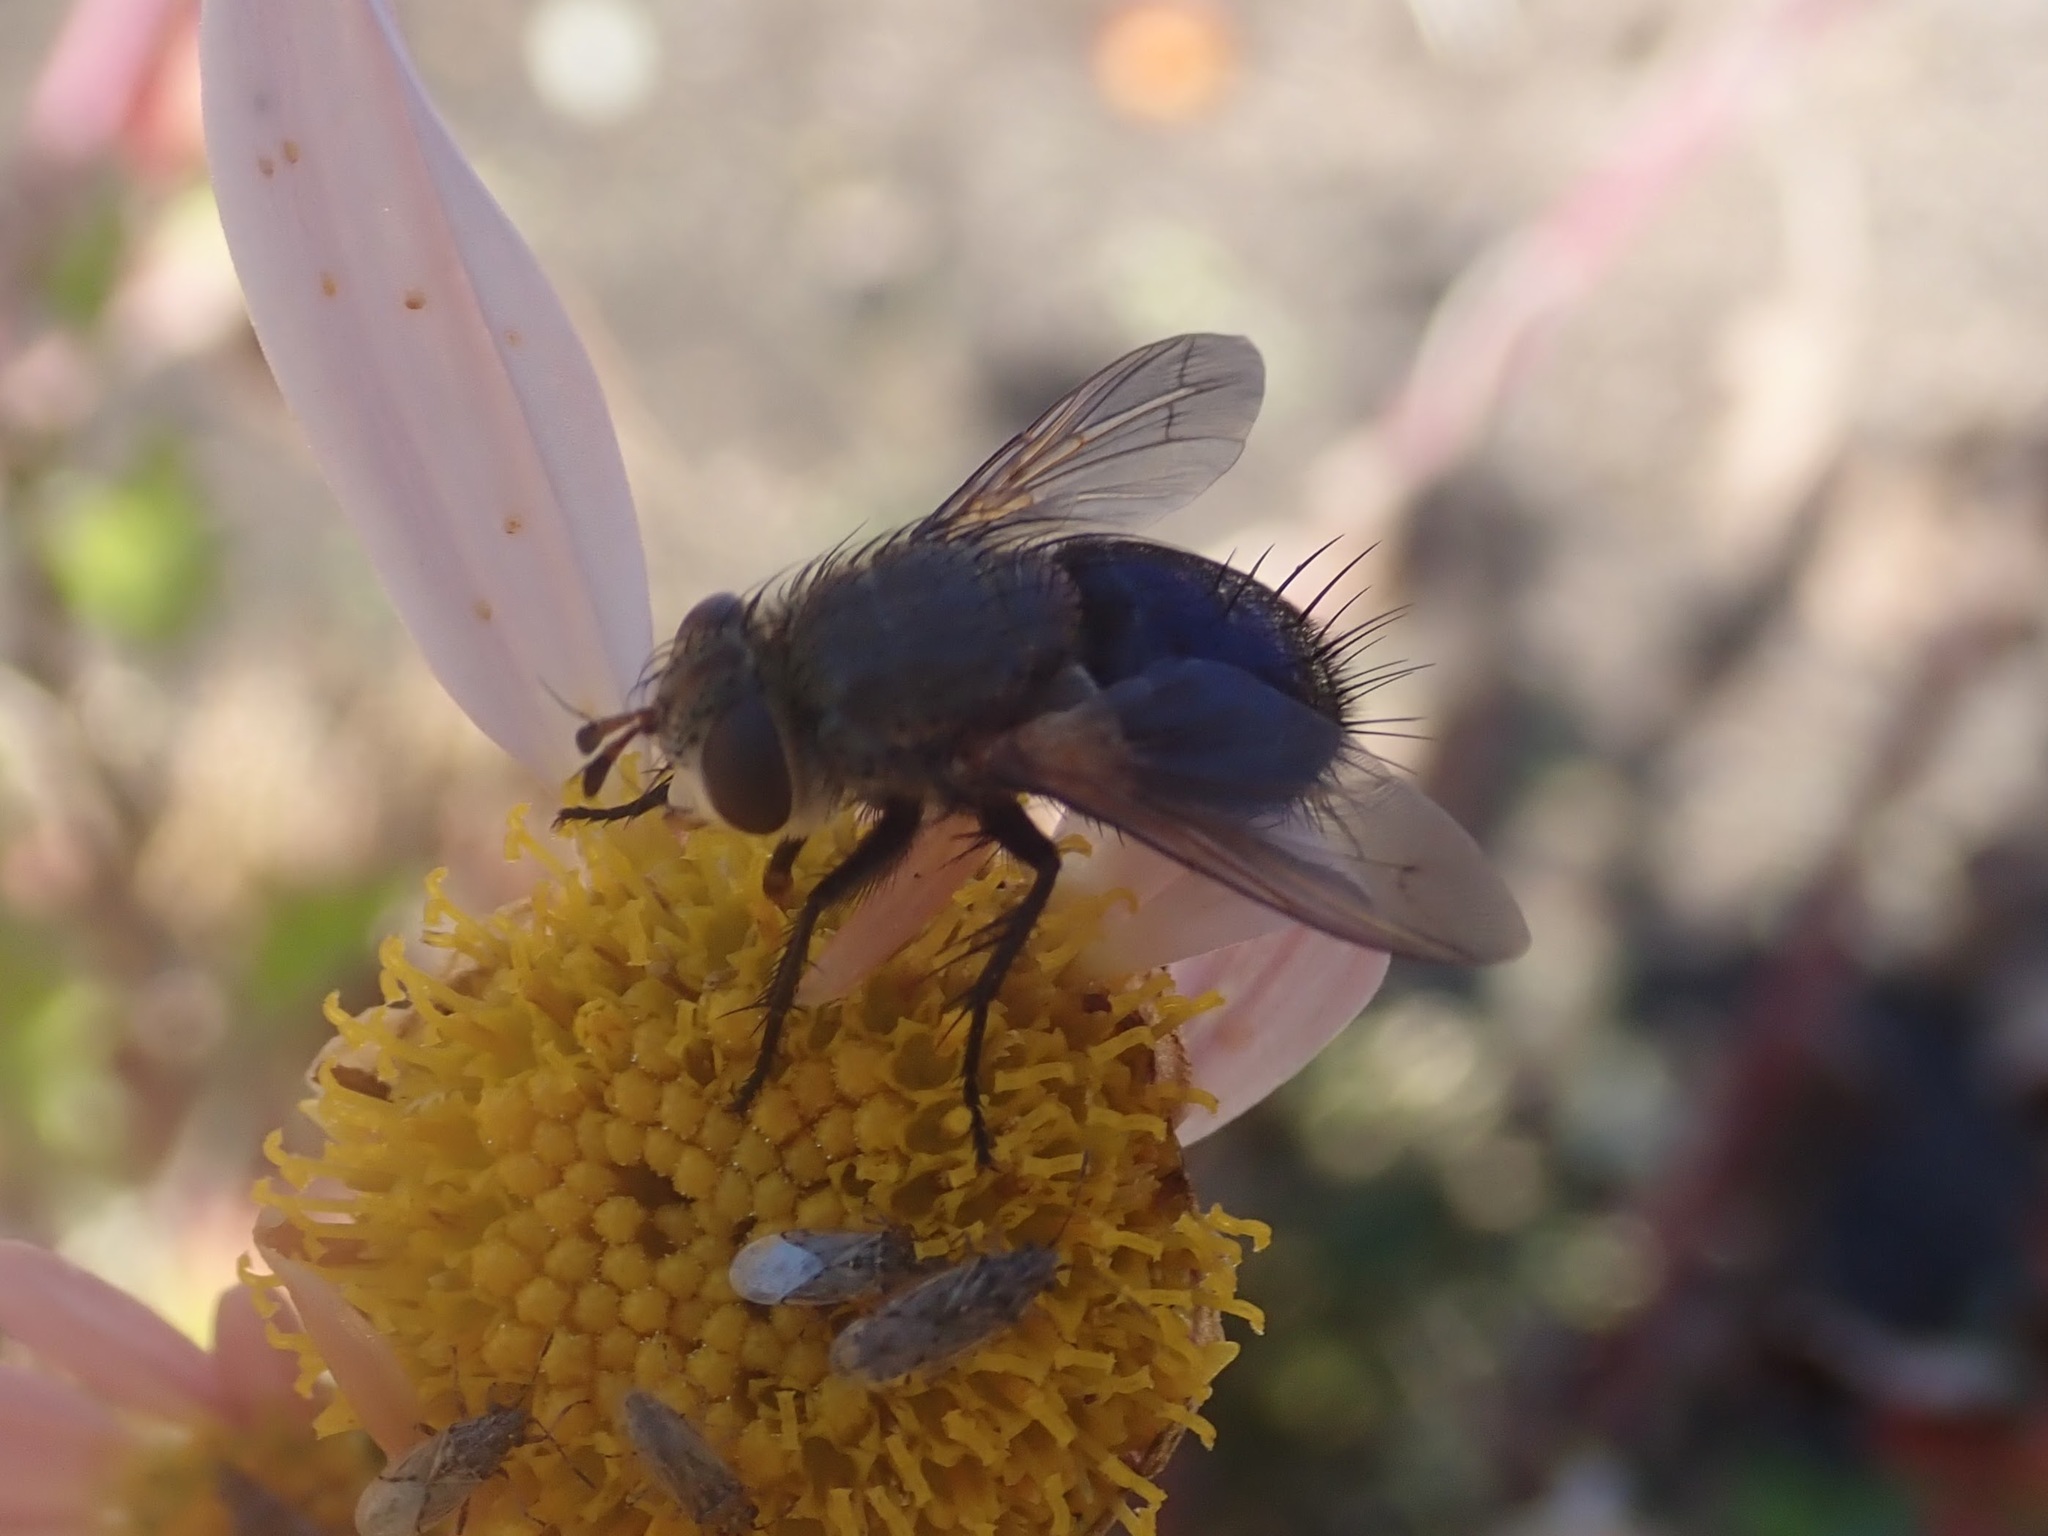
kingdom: Animalia
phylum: Arthropoda
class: Insecta
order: Diptera
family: Tachinidae
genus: Archytas
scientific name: Archytas
